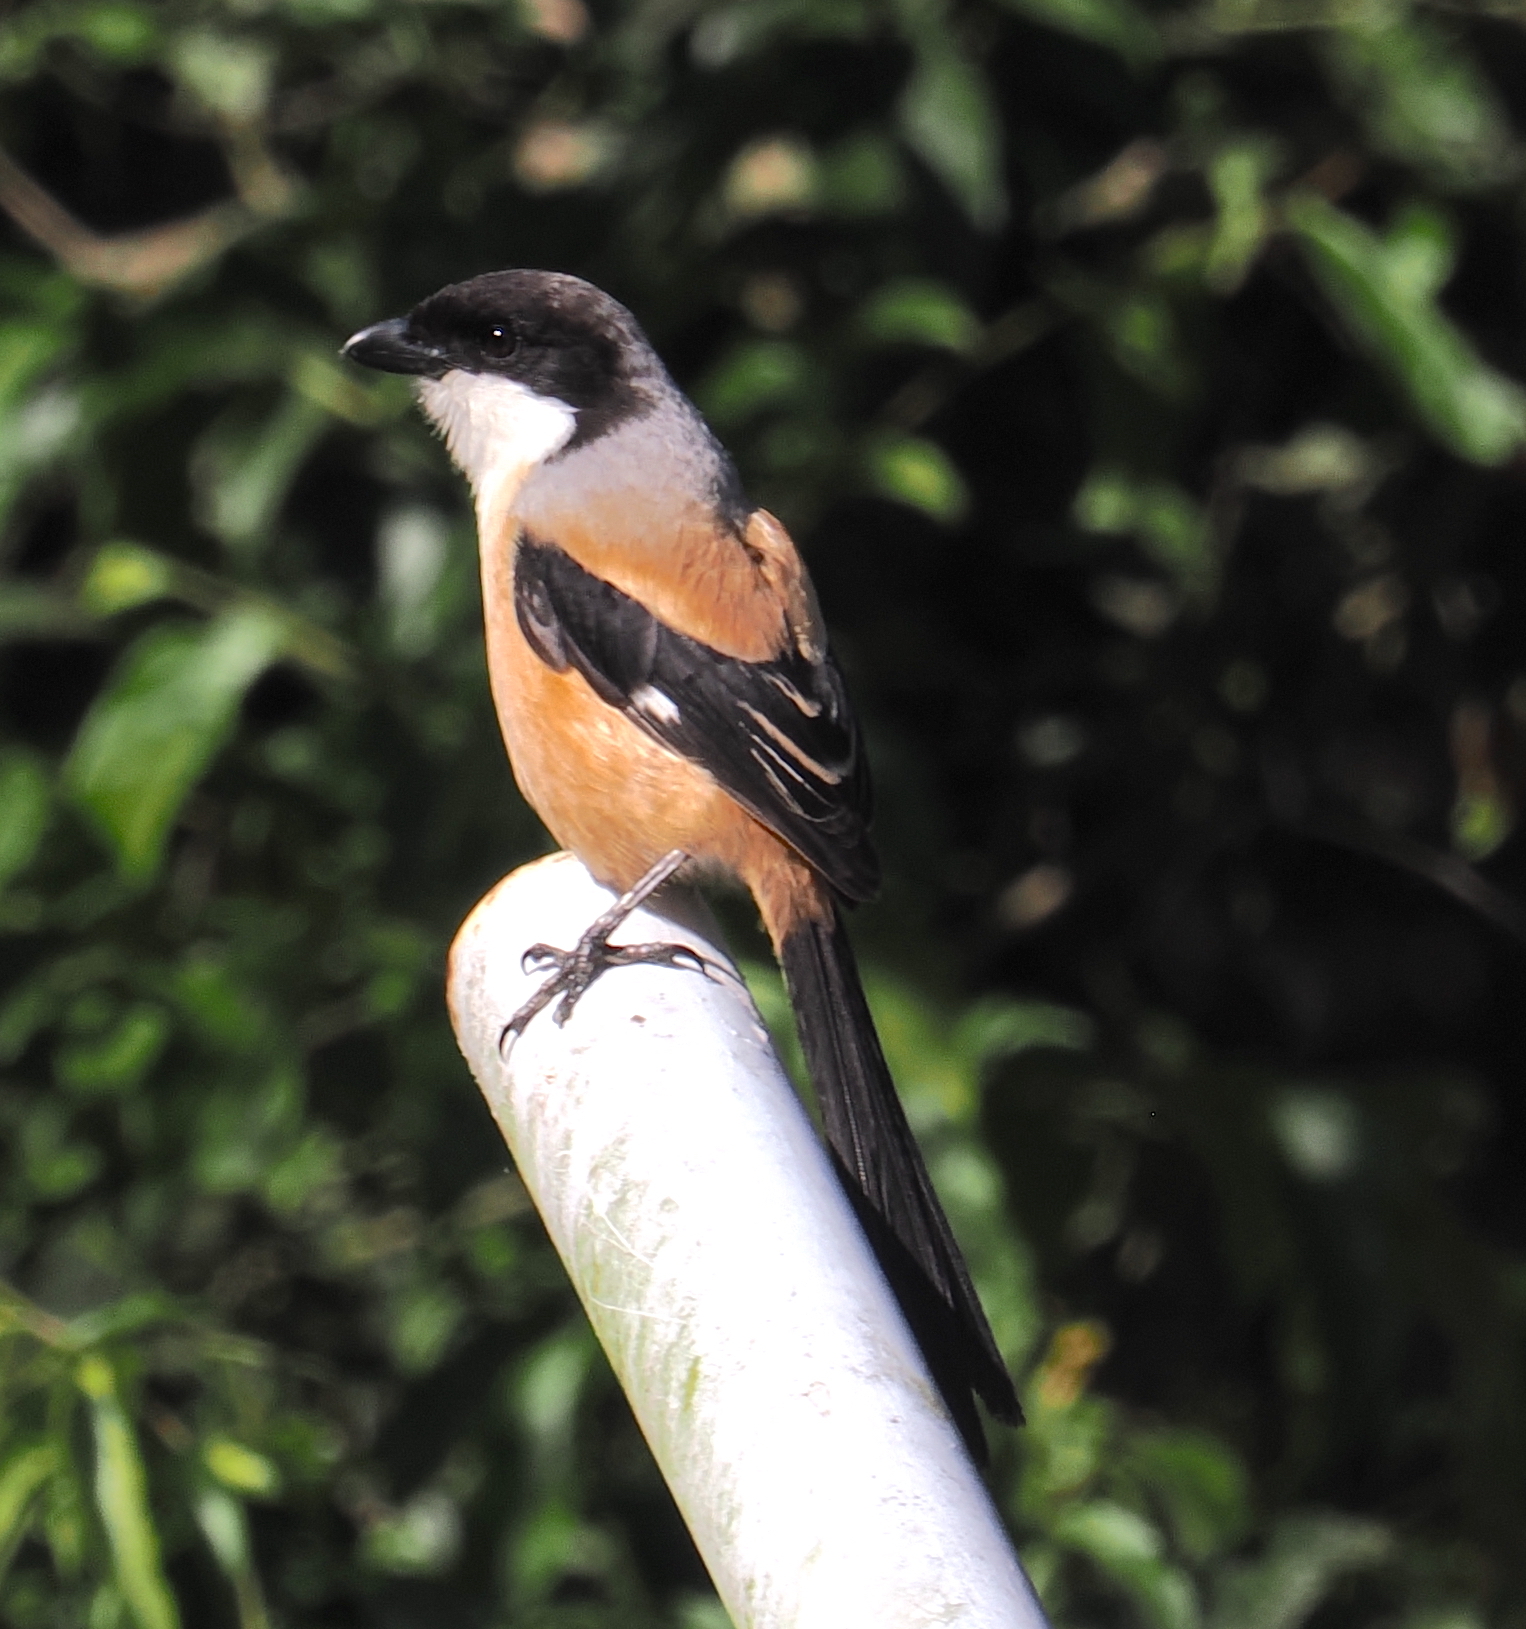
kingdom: Animalia
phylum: Chordata
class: Aves
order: Passeriformes
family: Laniidae
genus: Lanius
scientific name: Lanius schach
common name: Long-tailed shrike
